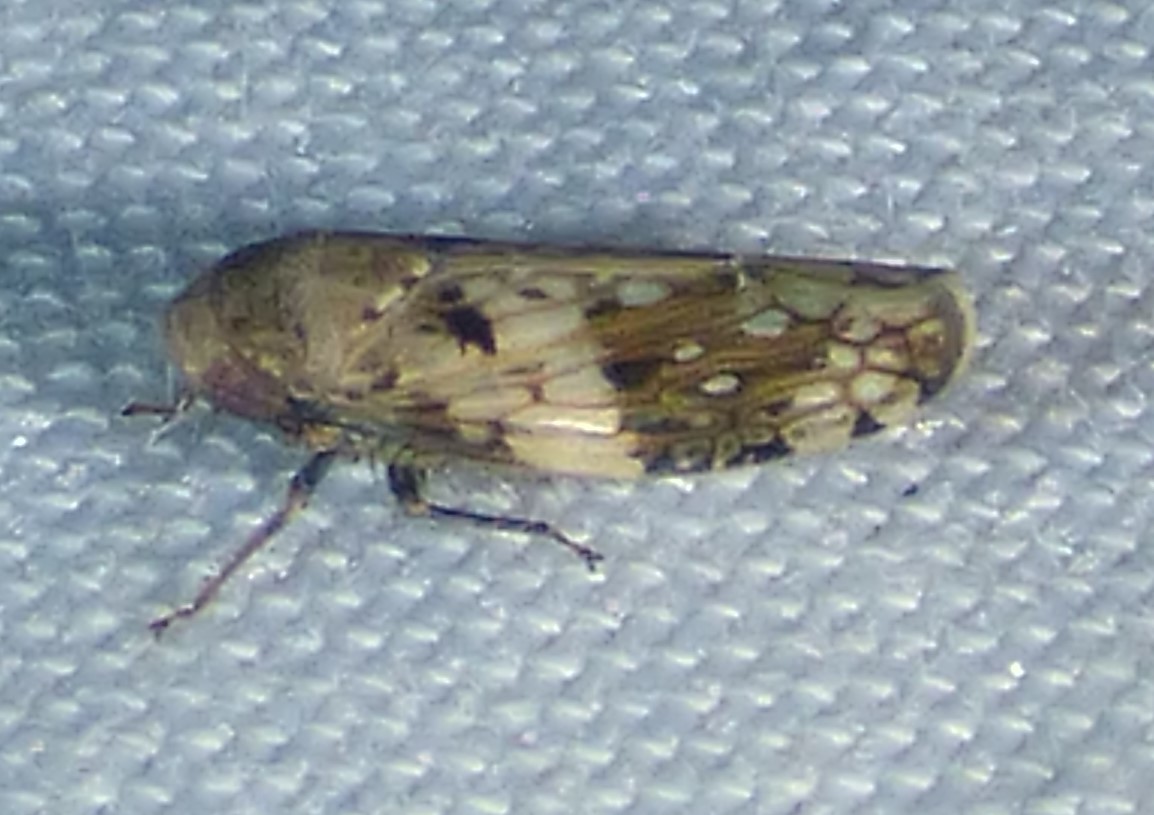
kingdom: Animalia
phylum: Arthropoda
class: Insecta
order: Hemiptera
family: Cicadellidae
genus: Menosoma
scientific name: Menosoma cinctum
